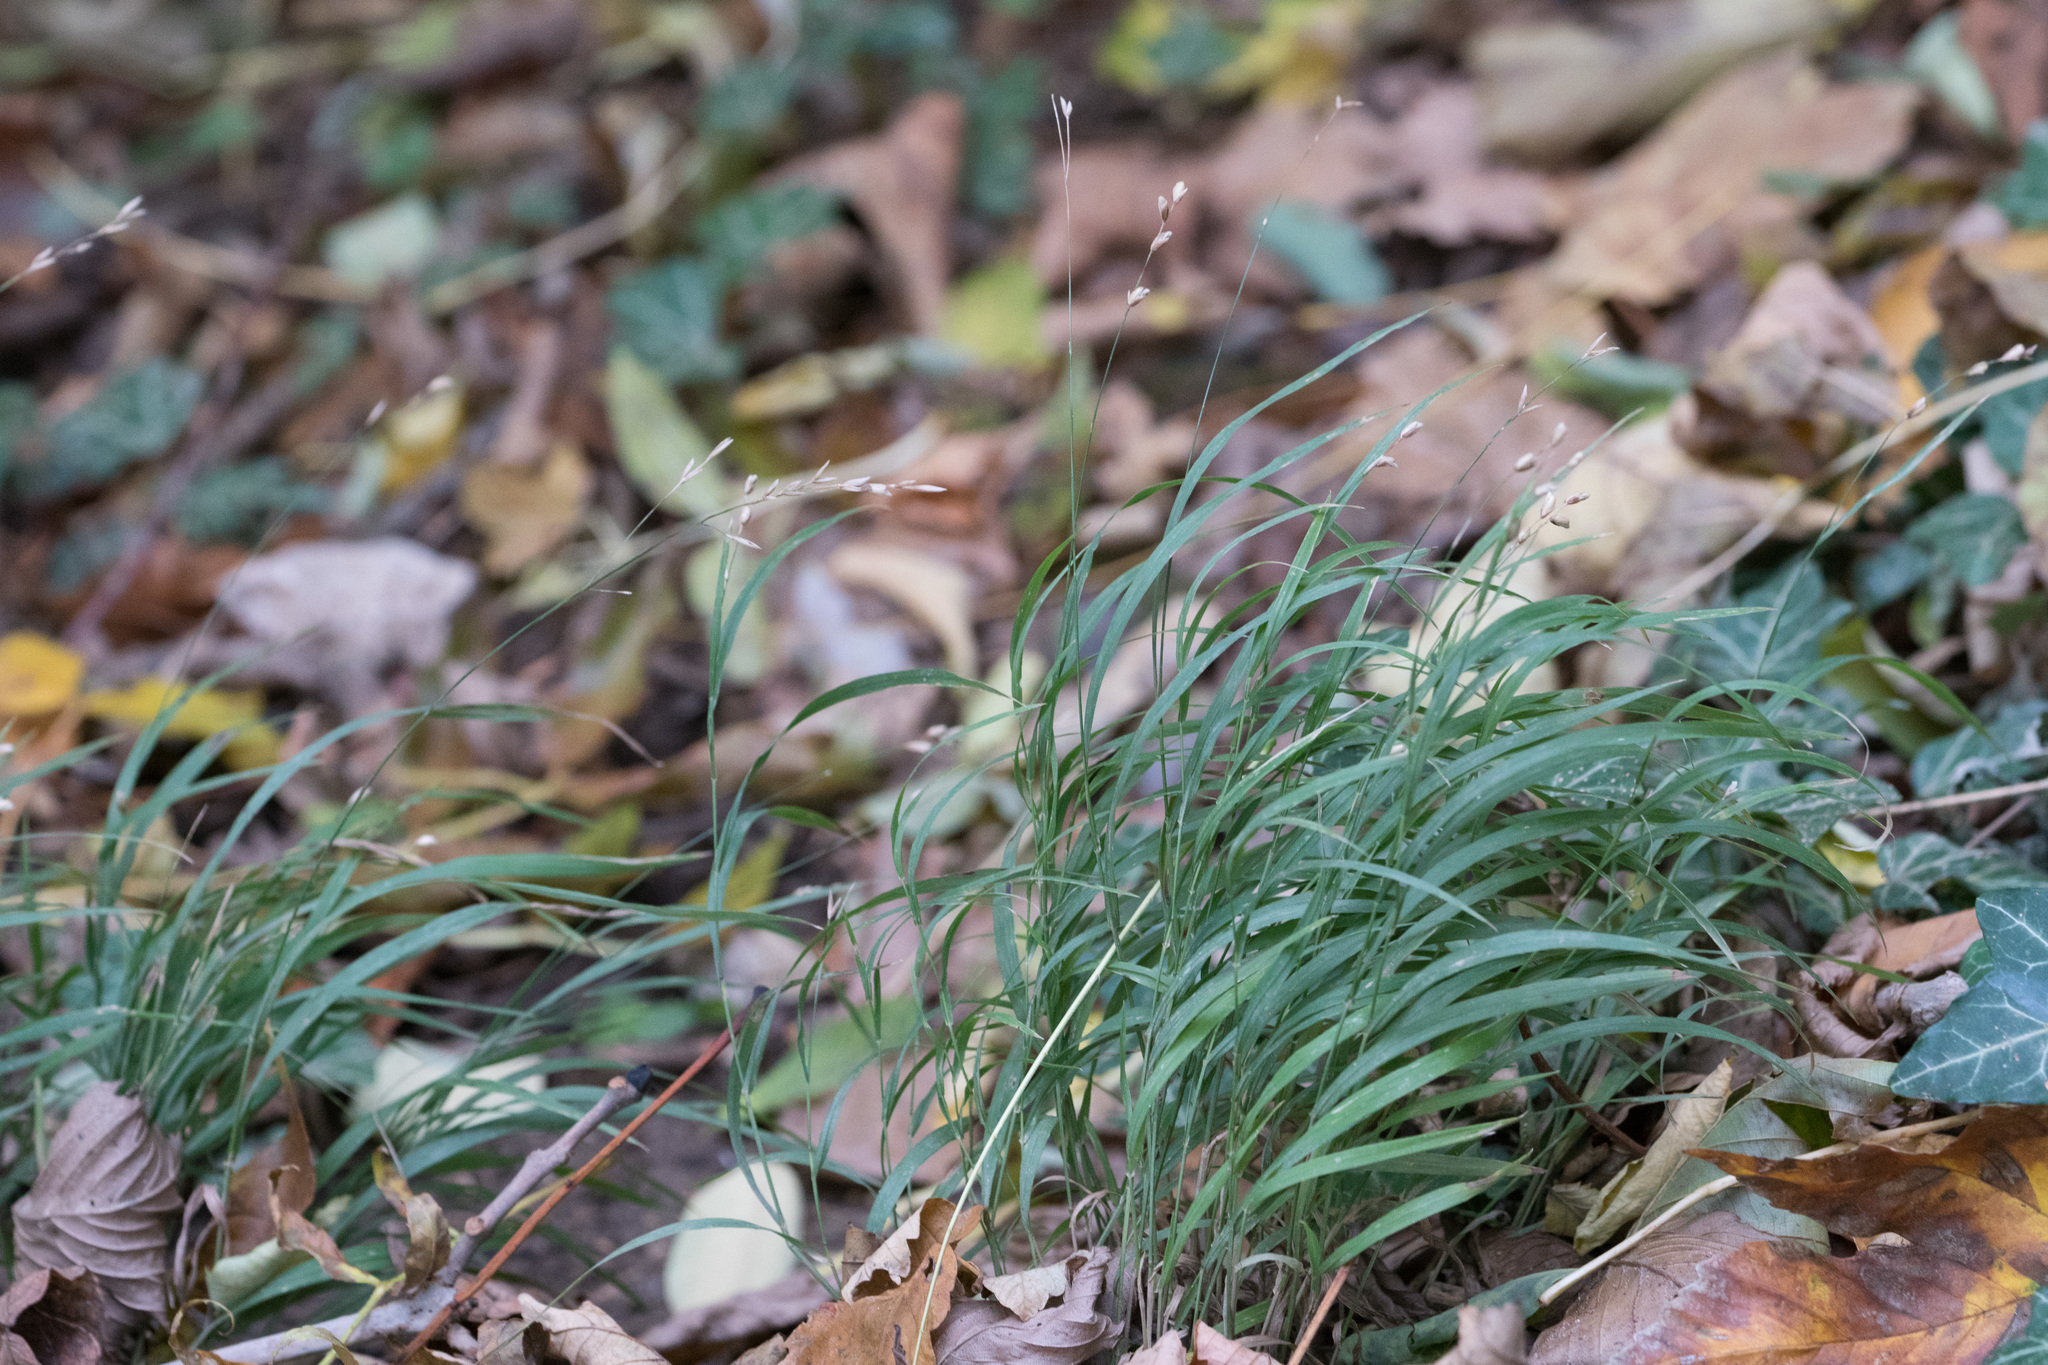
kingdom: Plantae
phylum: Tracheophyta
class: Liliopsida
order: Poales
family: Poaceae
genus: Melica
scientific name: Melica uniflora
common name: Wood melick
